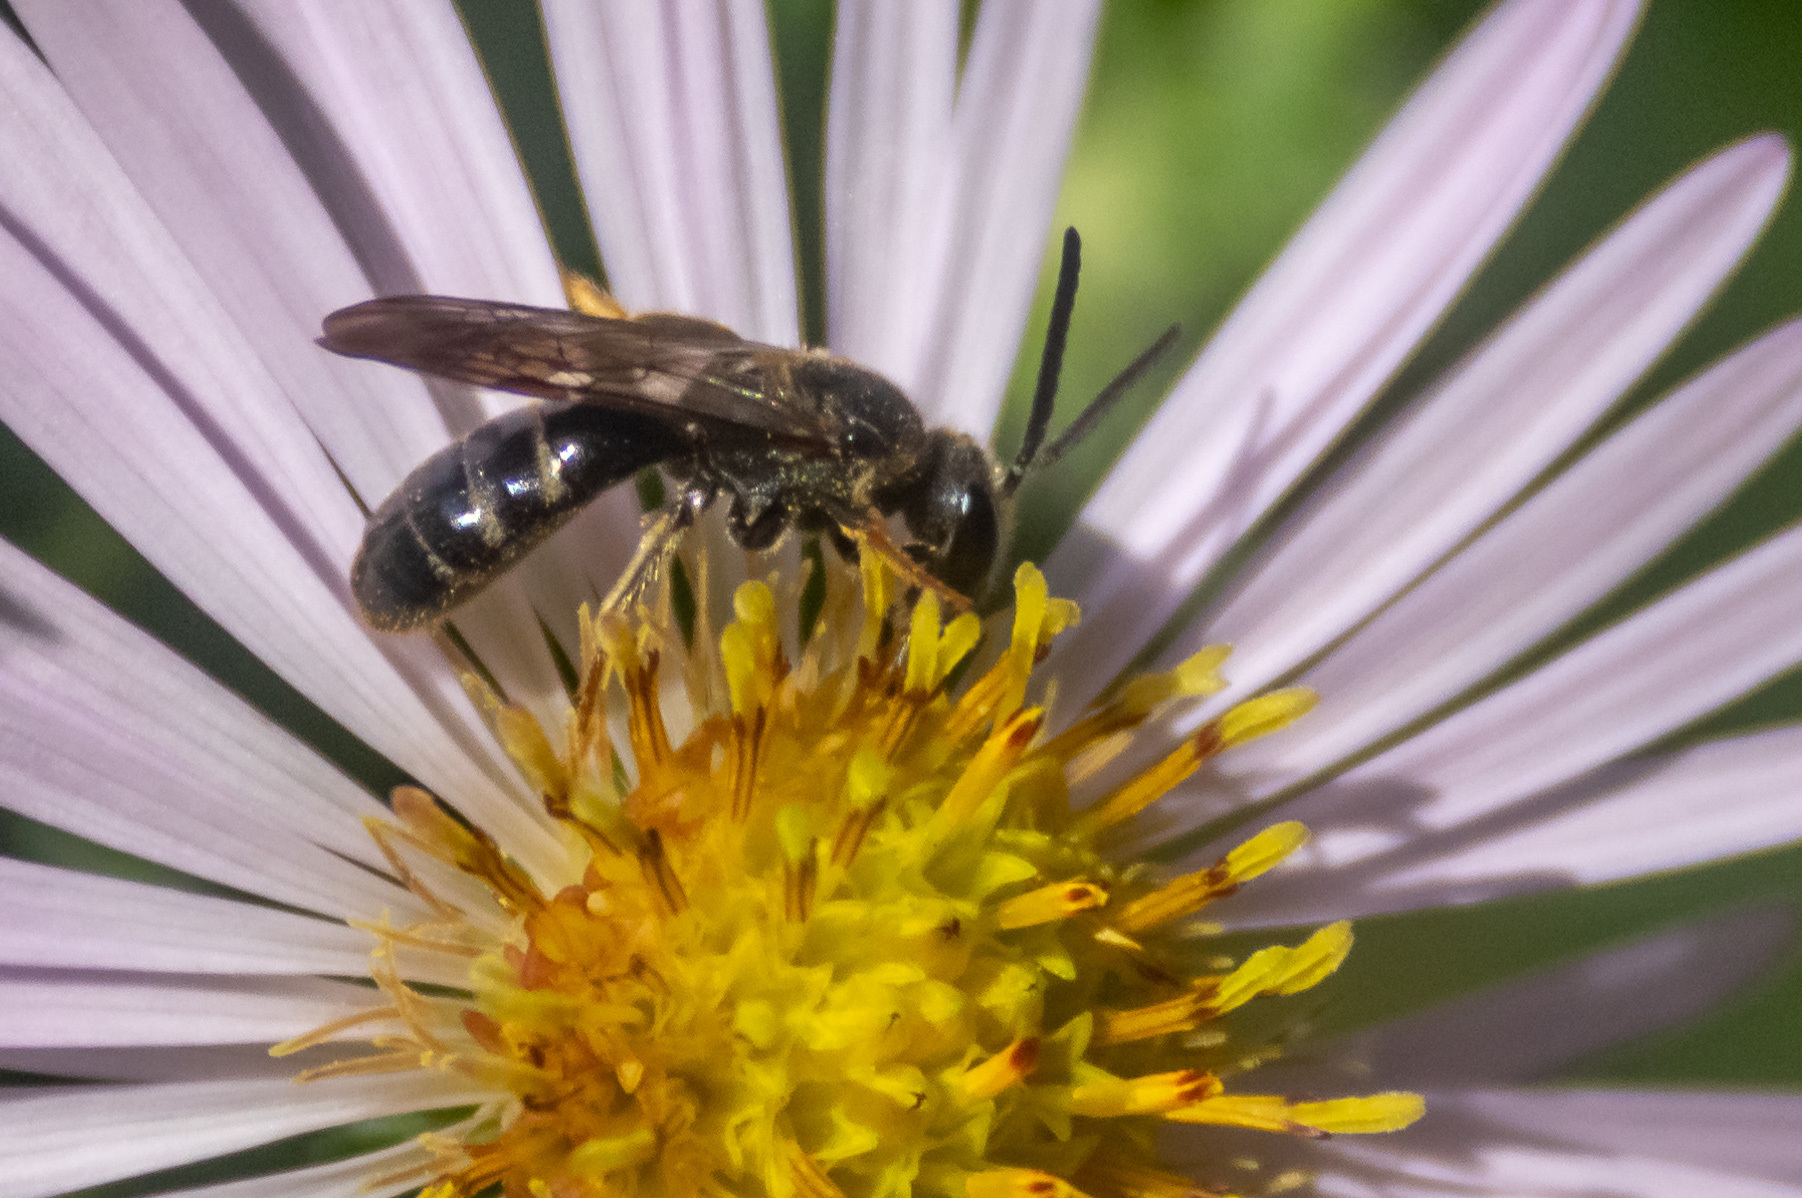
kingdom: Animalia
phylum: Arthropoda
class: Insecta
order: Hymenoptera
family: Halictidae
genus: Lasioglossum
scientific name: Lasioglossum fuscipenne
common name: Brown-winged sweat bee
